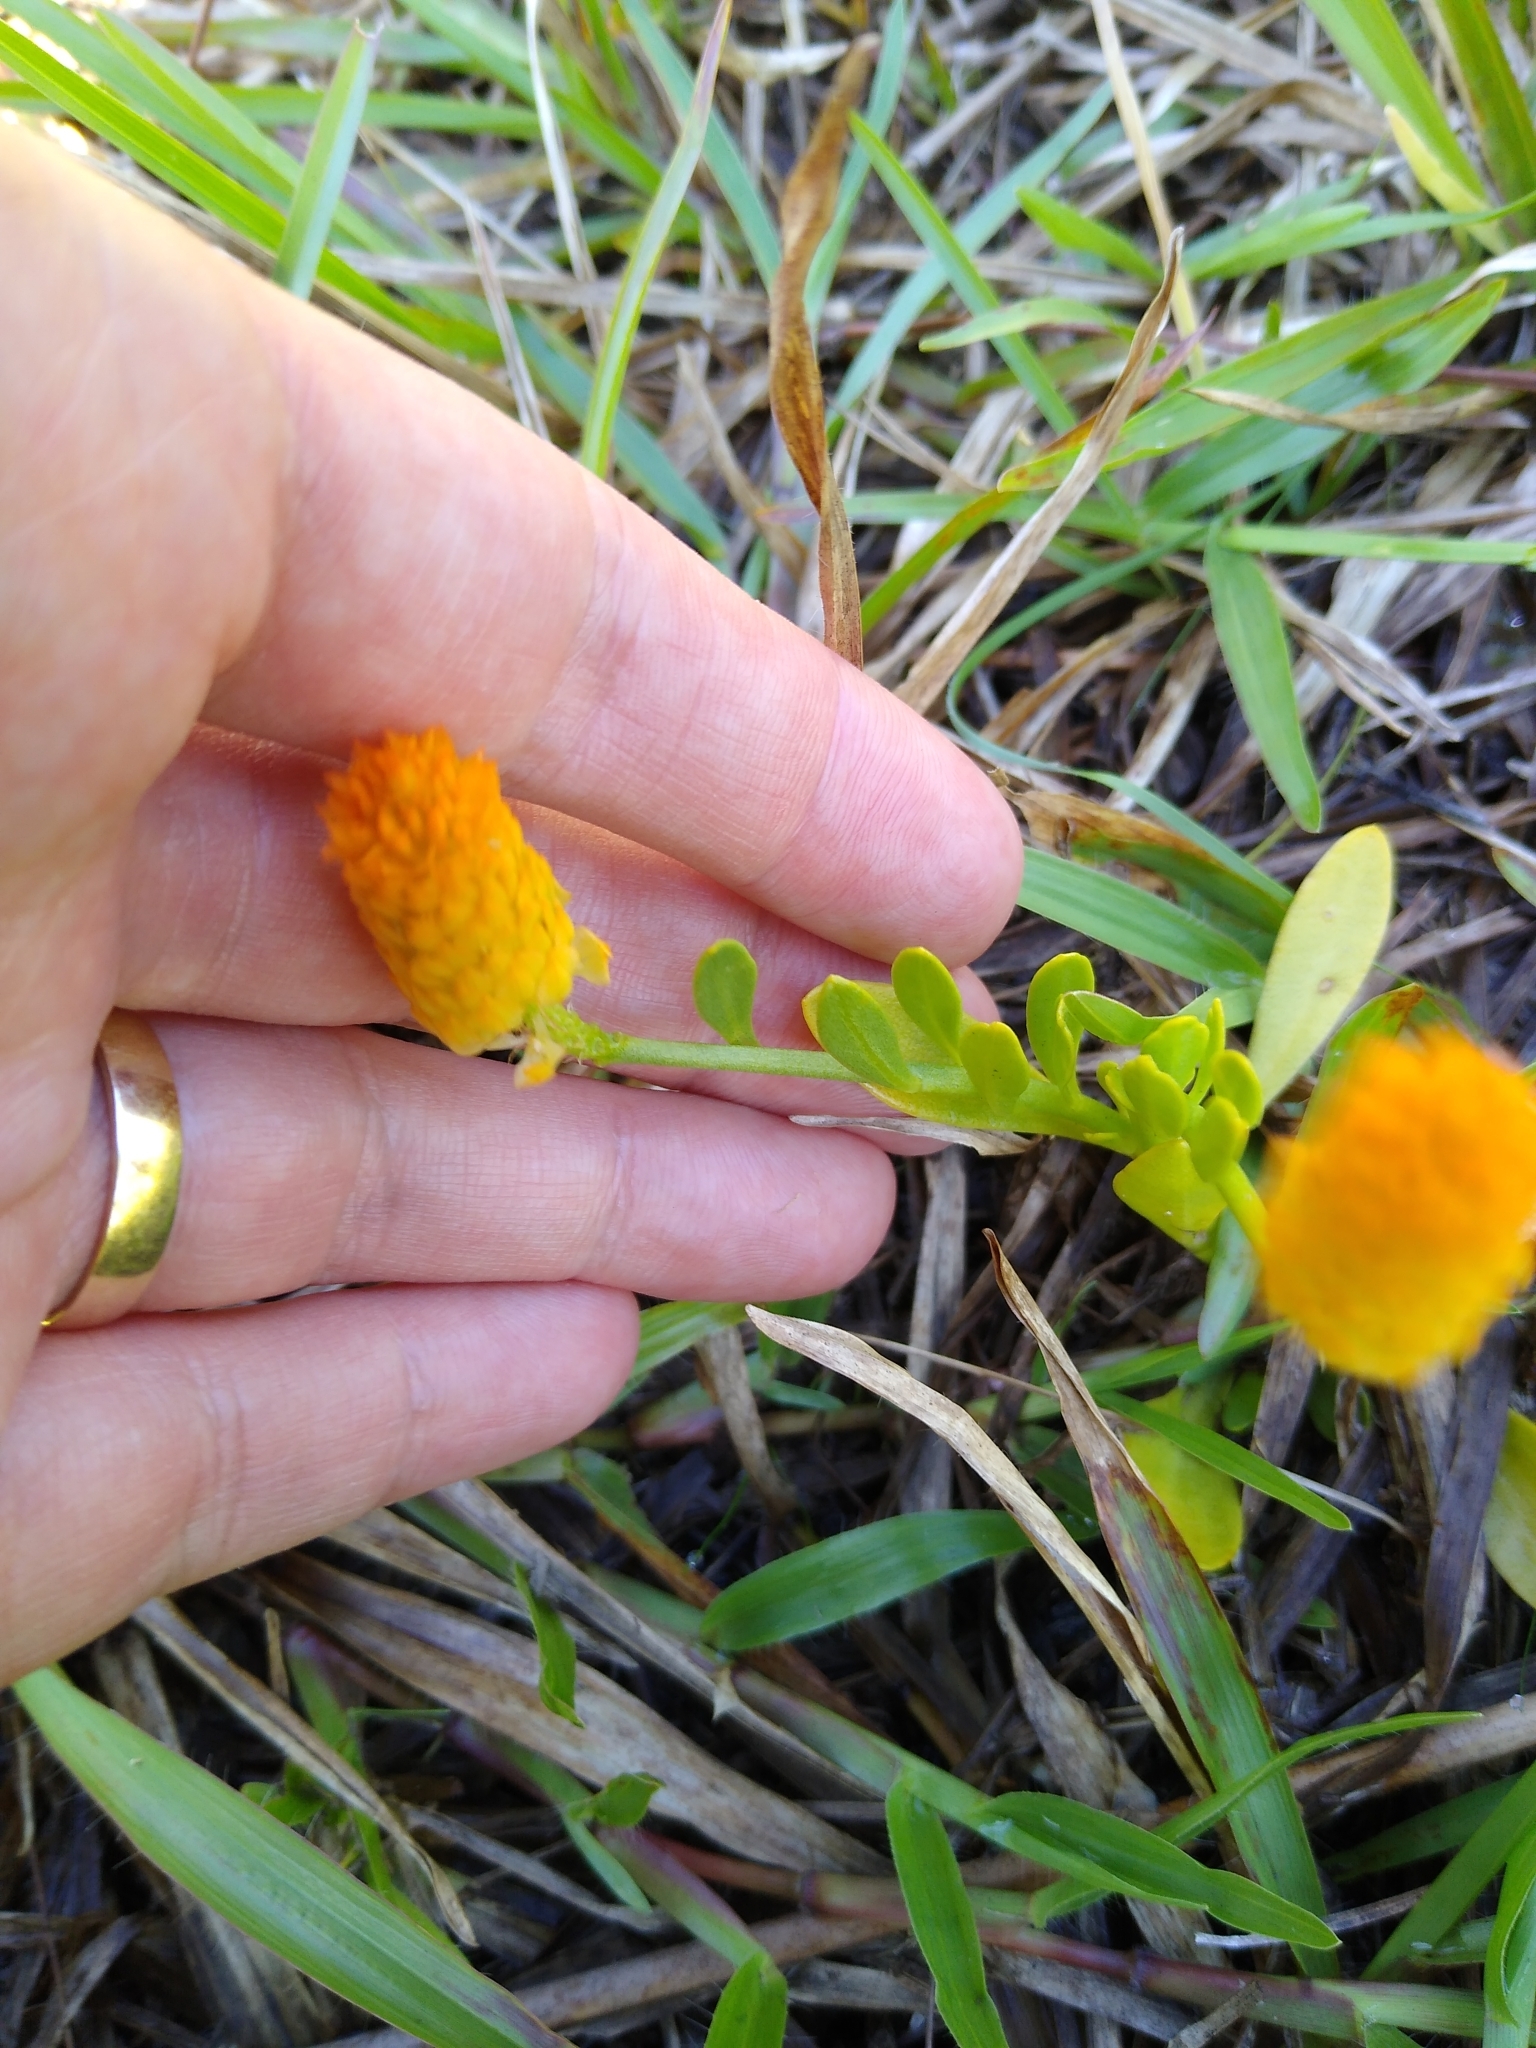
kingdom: Plantae
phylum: Tracheophyta
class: Magnoliopsida
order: Fabales
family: Polygalaceae
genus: Polygala
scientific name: Polygala lutea
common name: Orange milkwort
